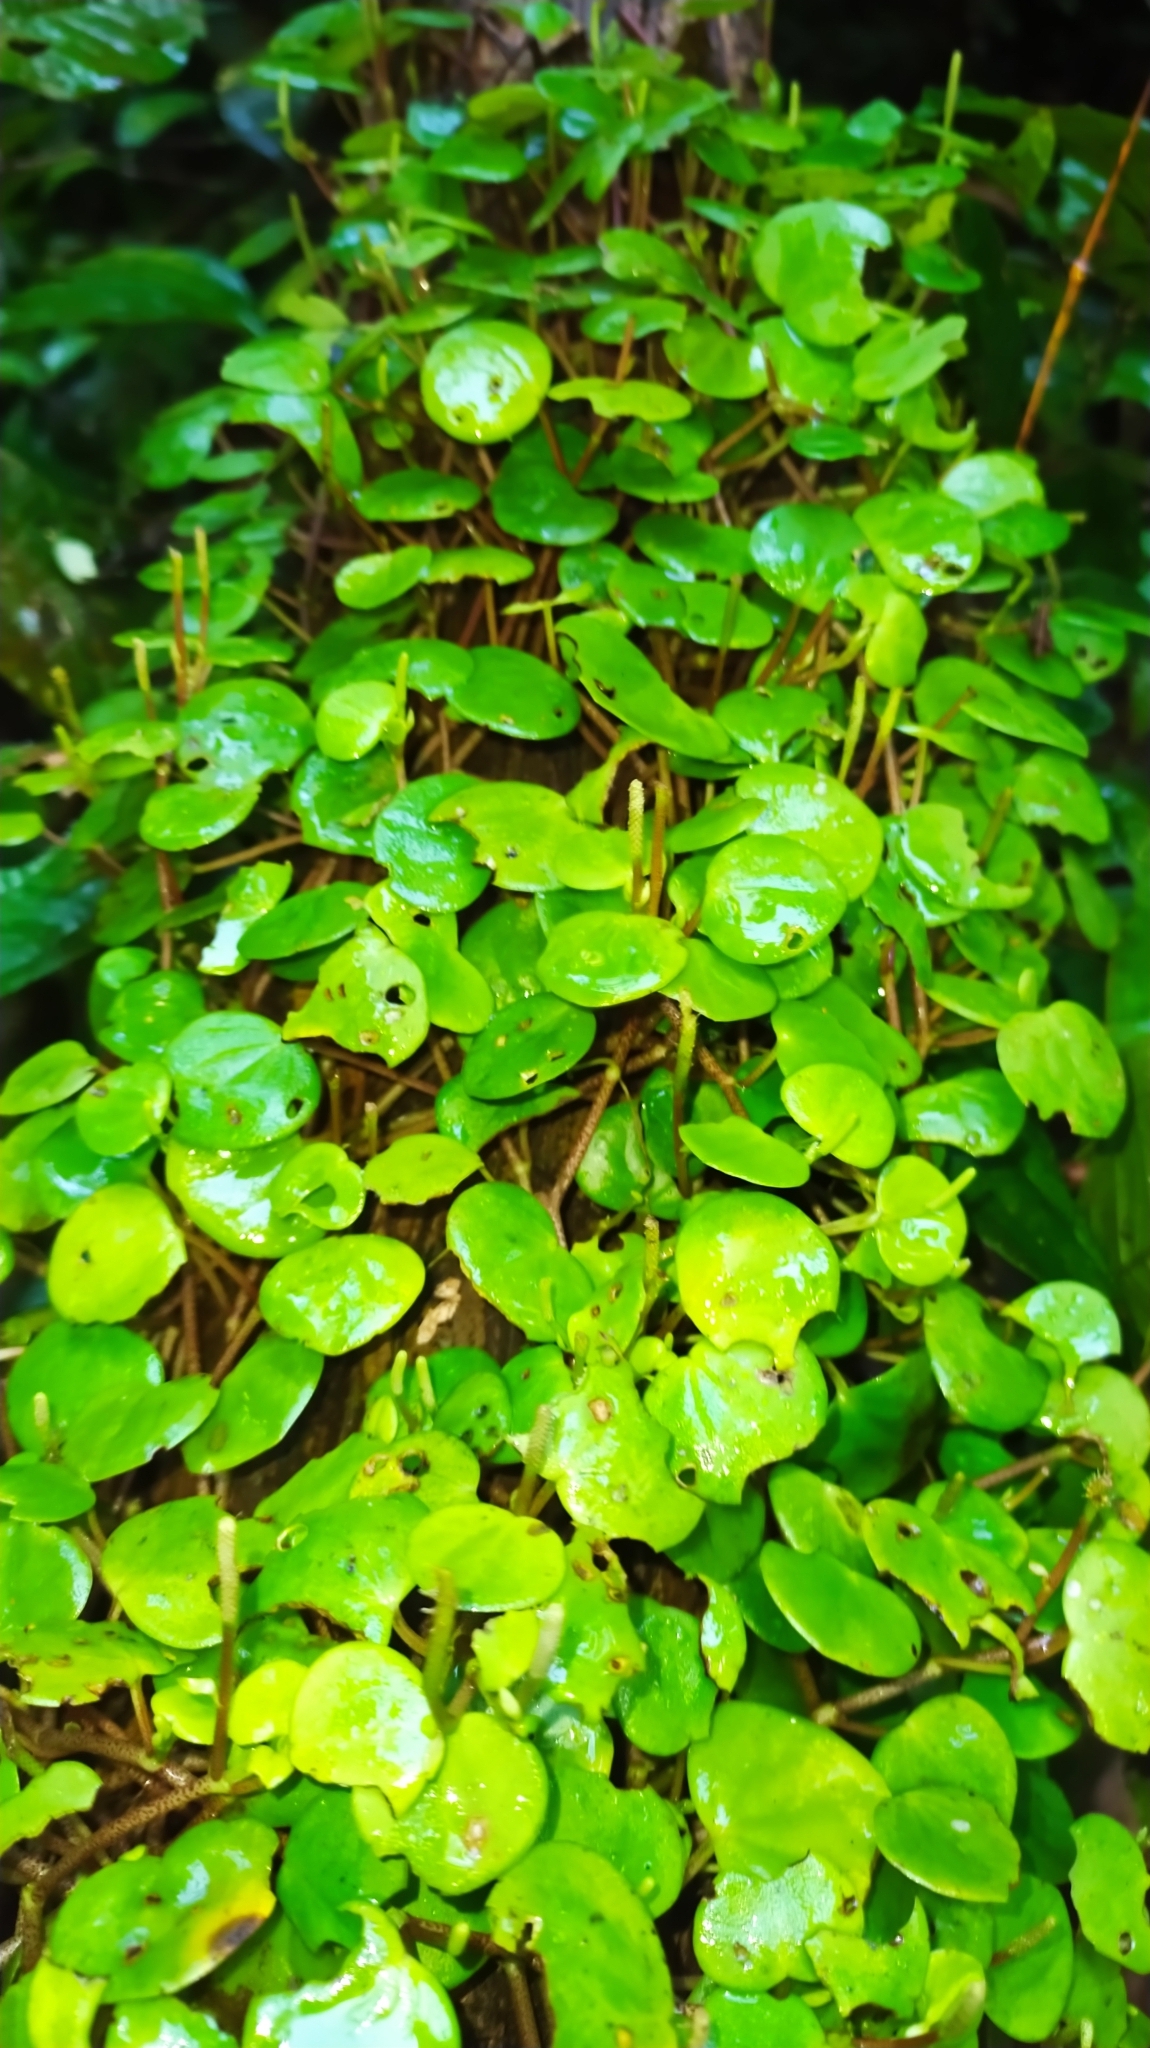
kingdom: Plantae
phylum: Tracheophyta
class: Magnoliopsida
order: Piperales
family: Piperaceae
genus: Peperomia
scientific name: Peperomia serpens
